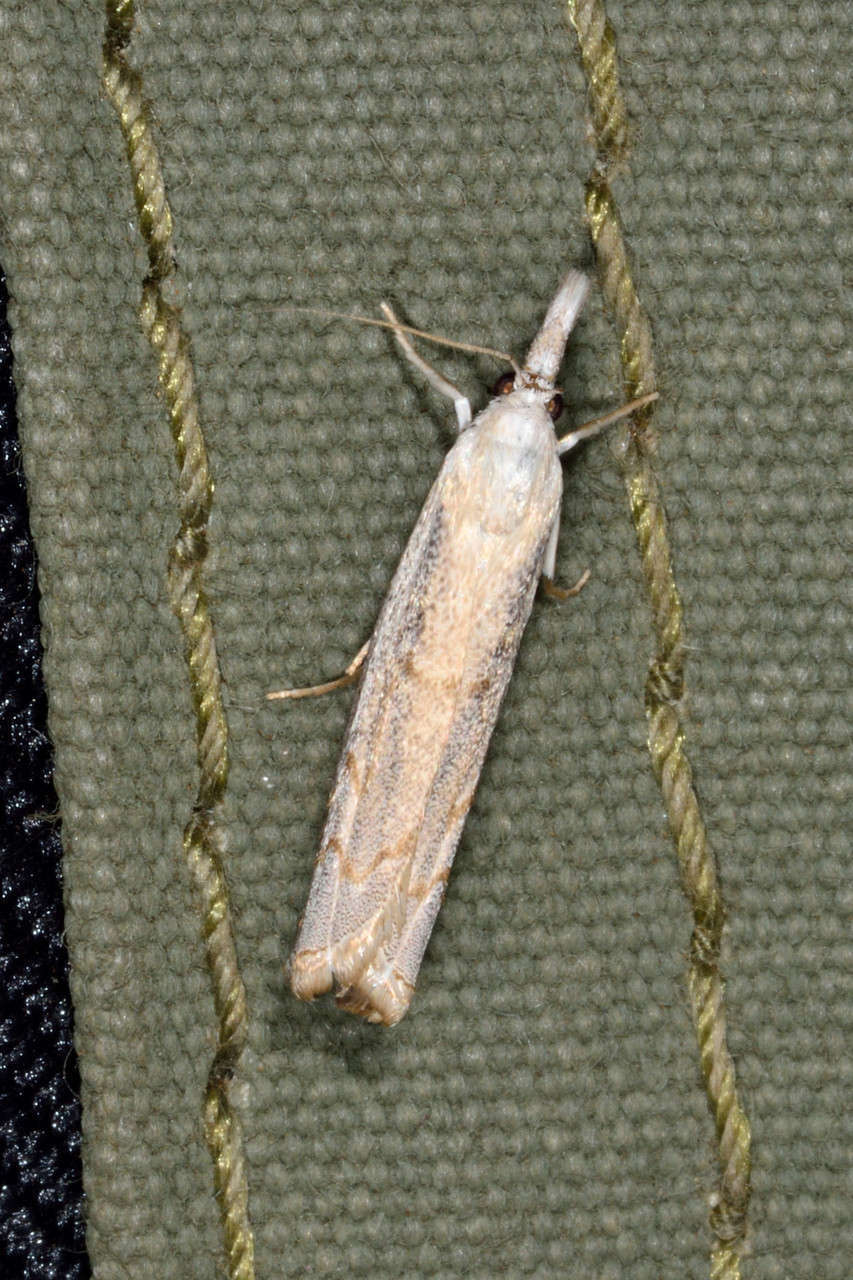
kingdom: Animalia
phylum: Arthropoda
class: Insecta
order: Lepidoptera
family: Crambidae
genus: Culladia
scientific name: Culladia cuneiferellus
